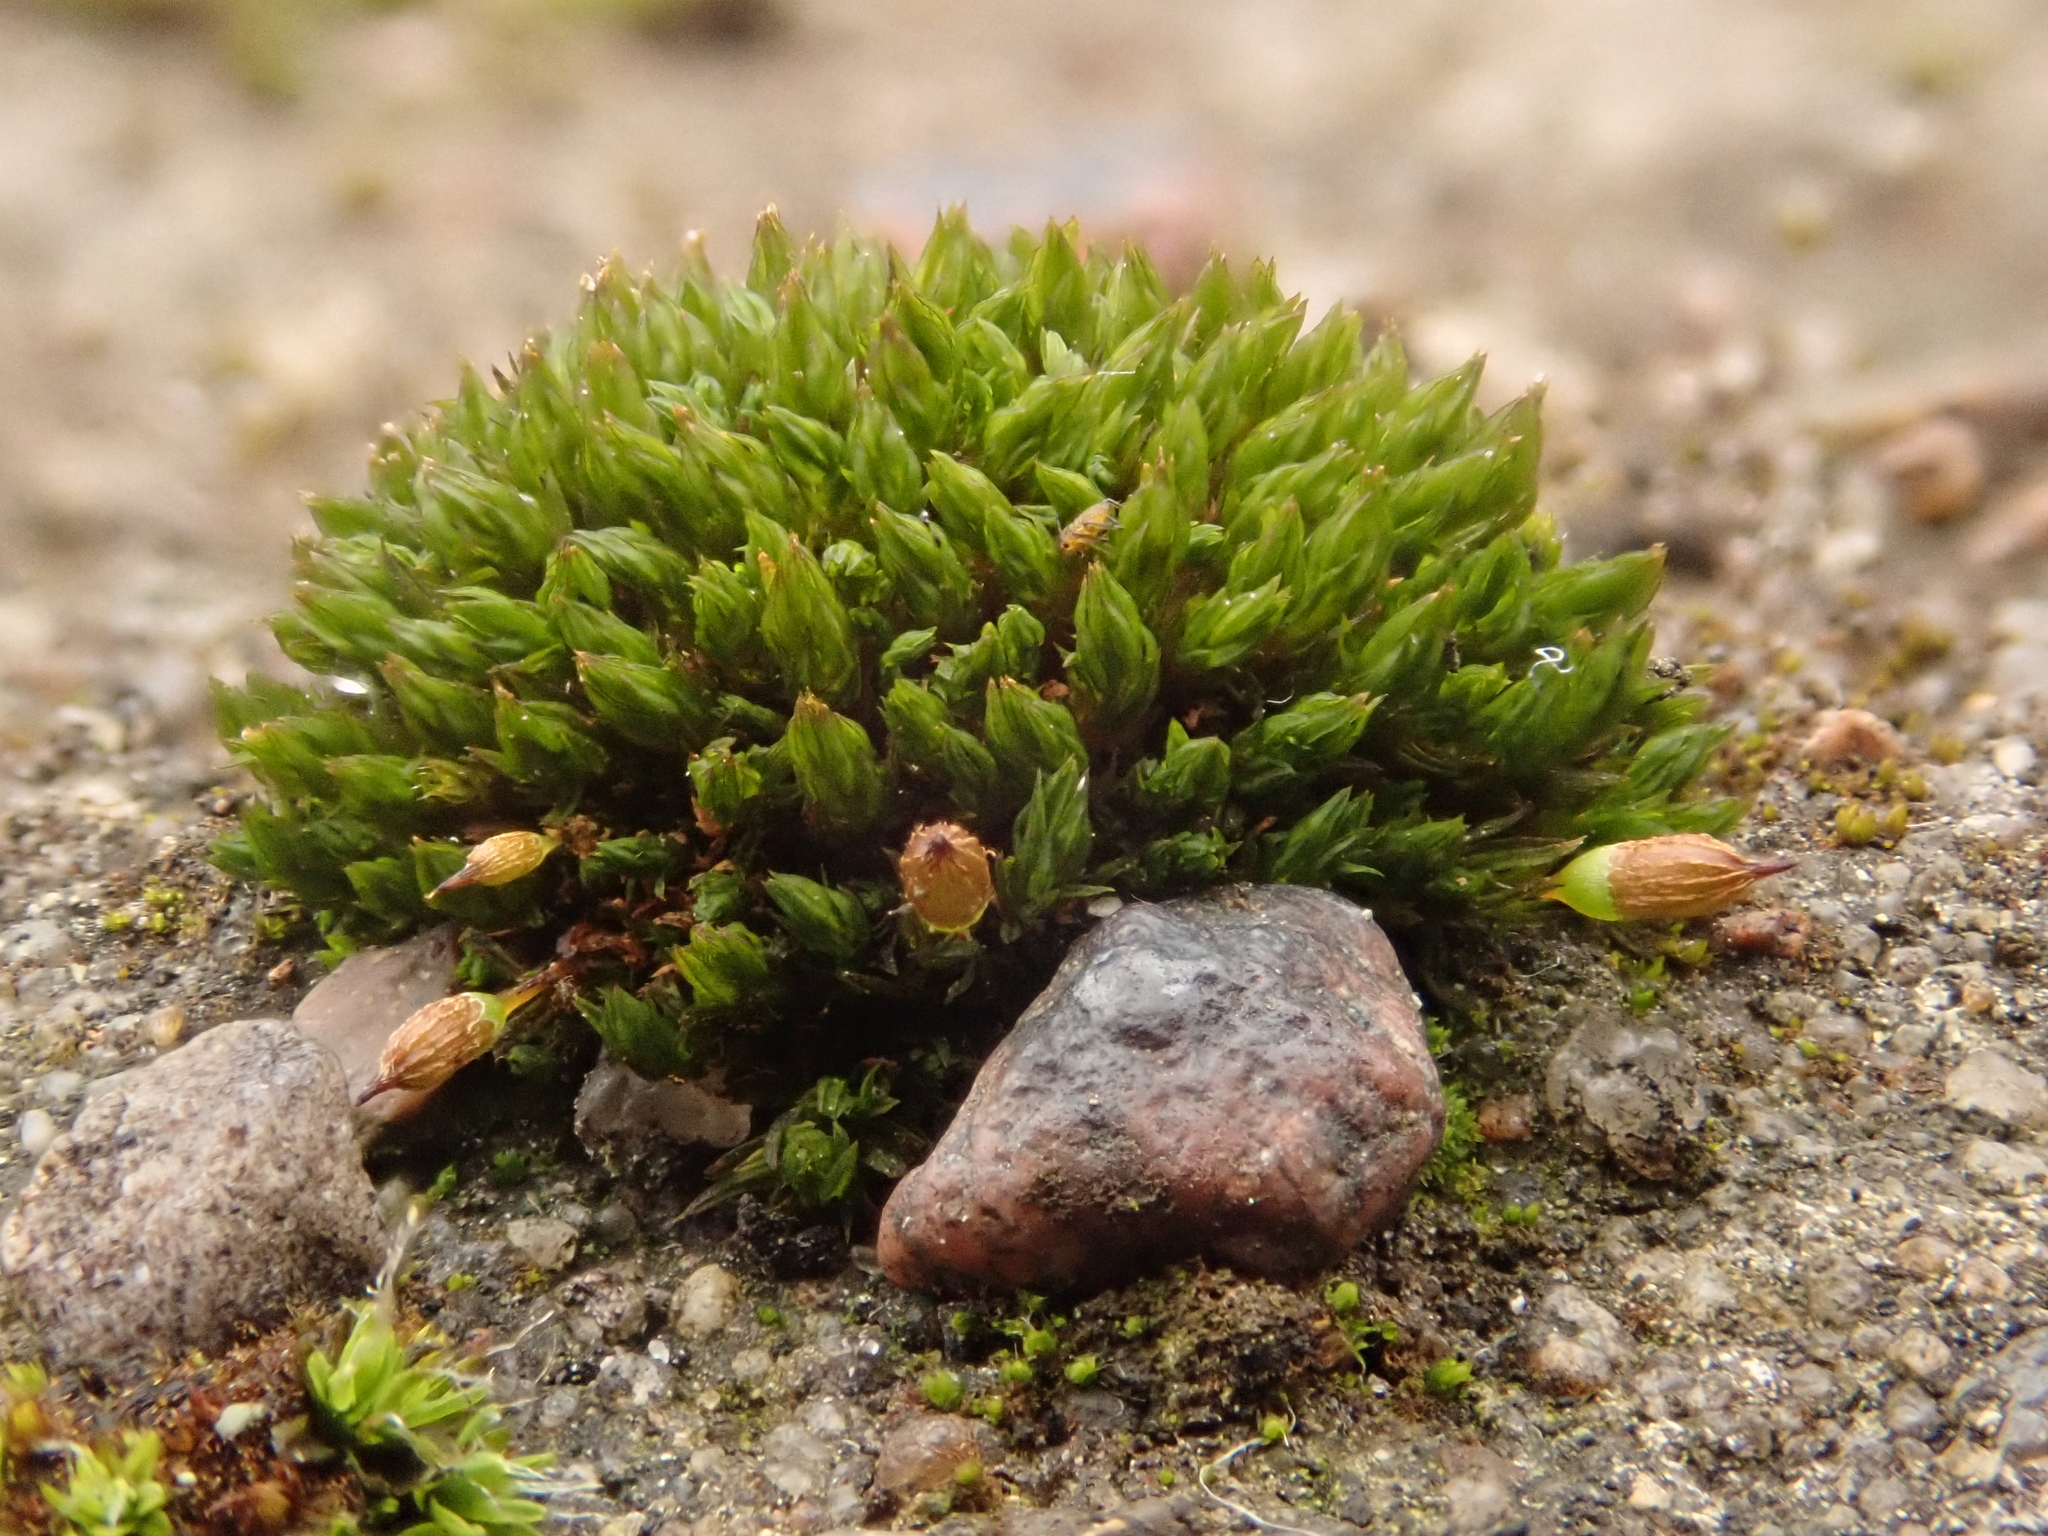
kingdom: Plantae
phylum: Bryophyta
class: Bryopsida
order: Orthotrichales
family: Orthotrichaceae
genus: Orthotrichum
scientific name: Orthotrichum anomalum
